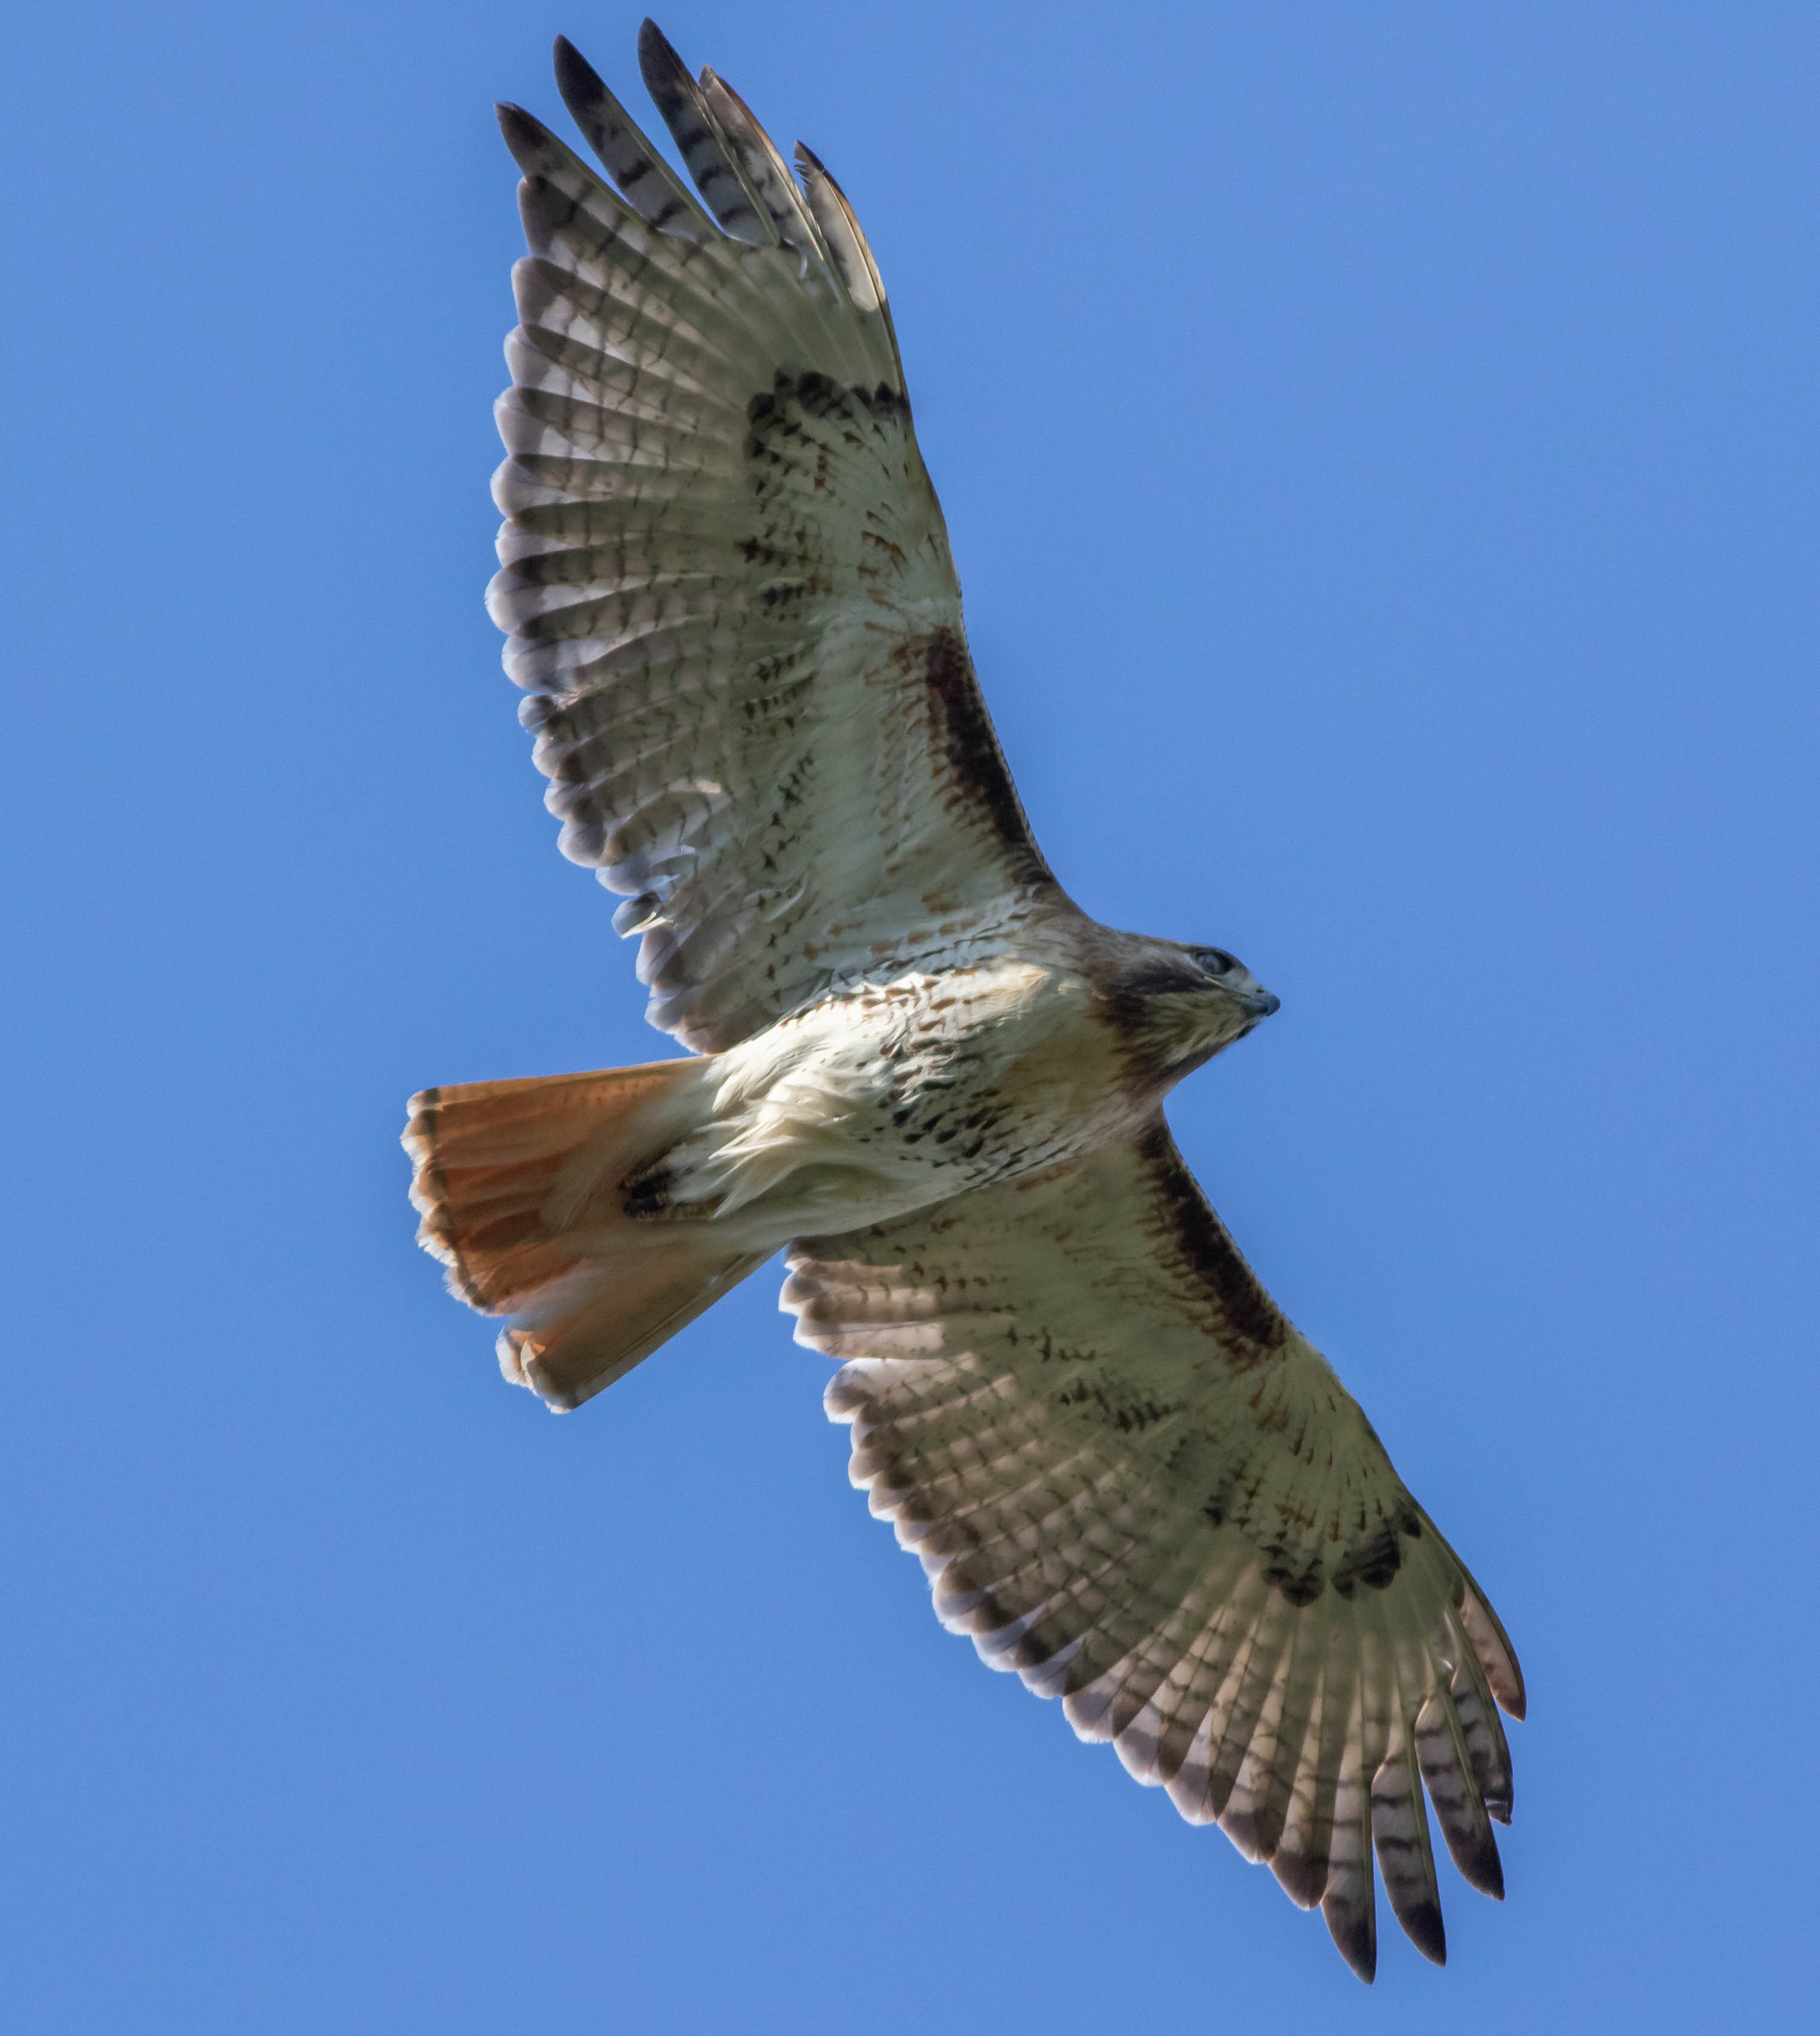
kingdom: Animalia
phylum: Chordata
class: Aves
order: Accipitriformes
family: Accipitridae
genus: Buteo
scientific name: Buteo jamaicensis
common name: Red-tailed hawk
